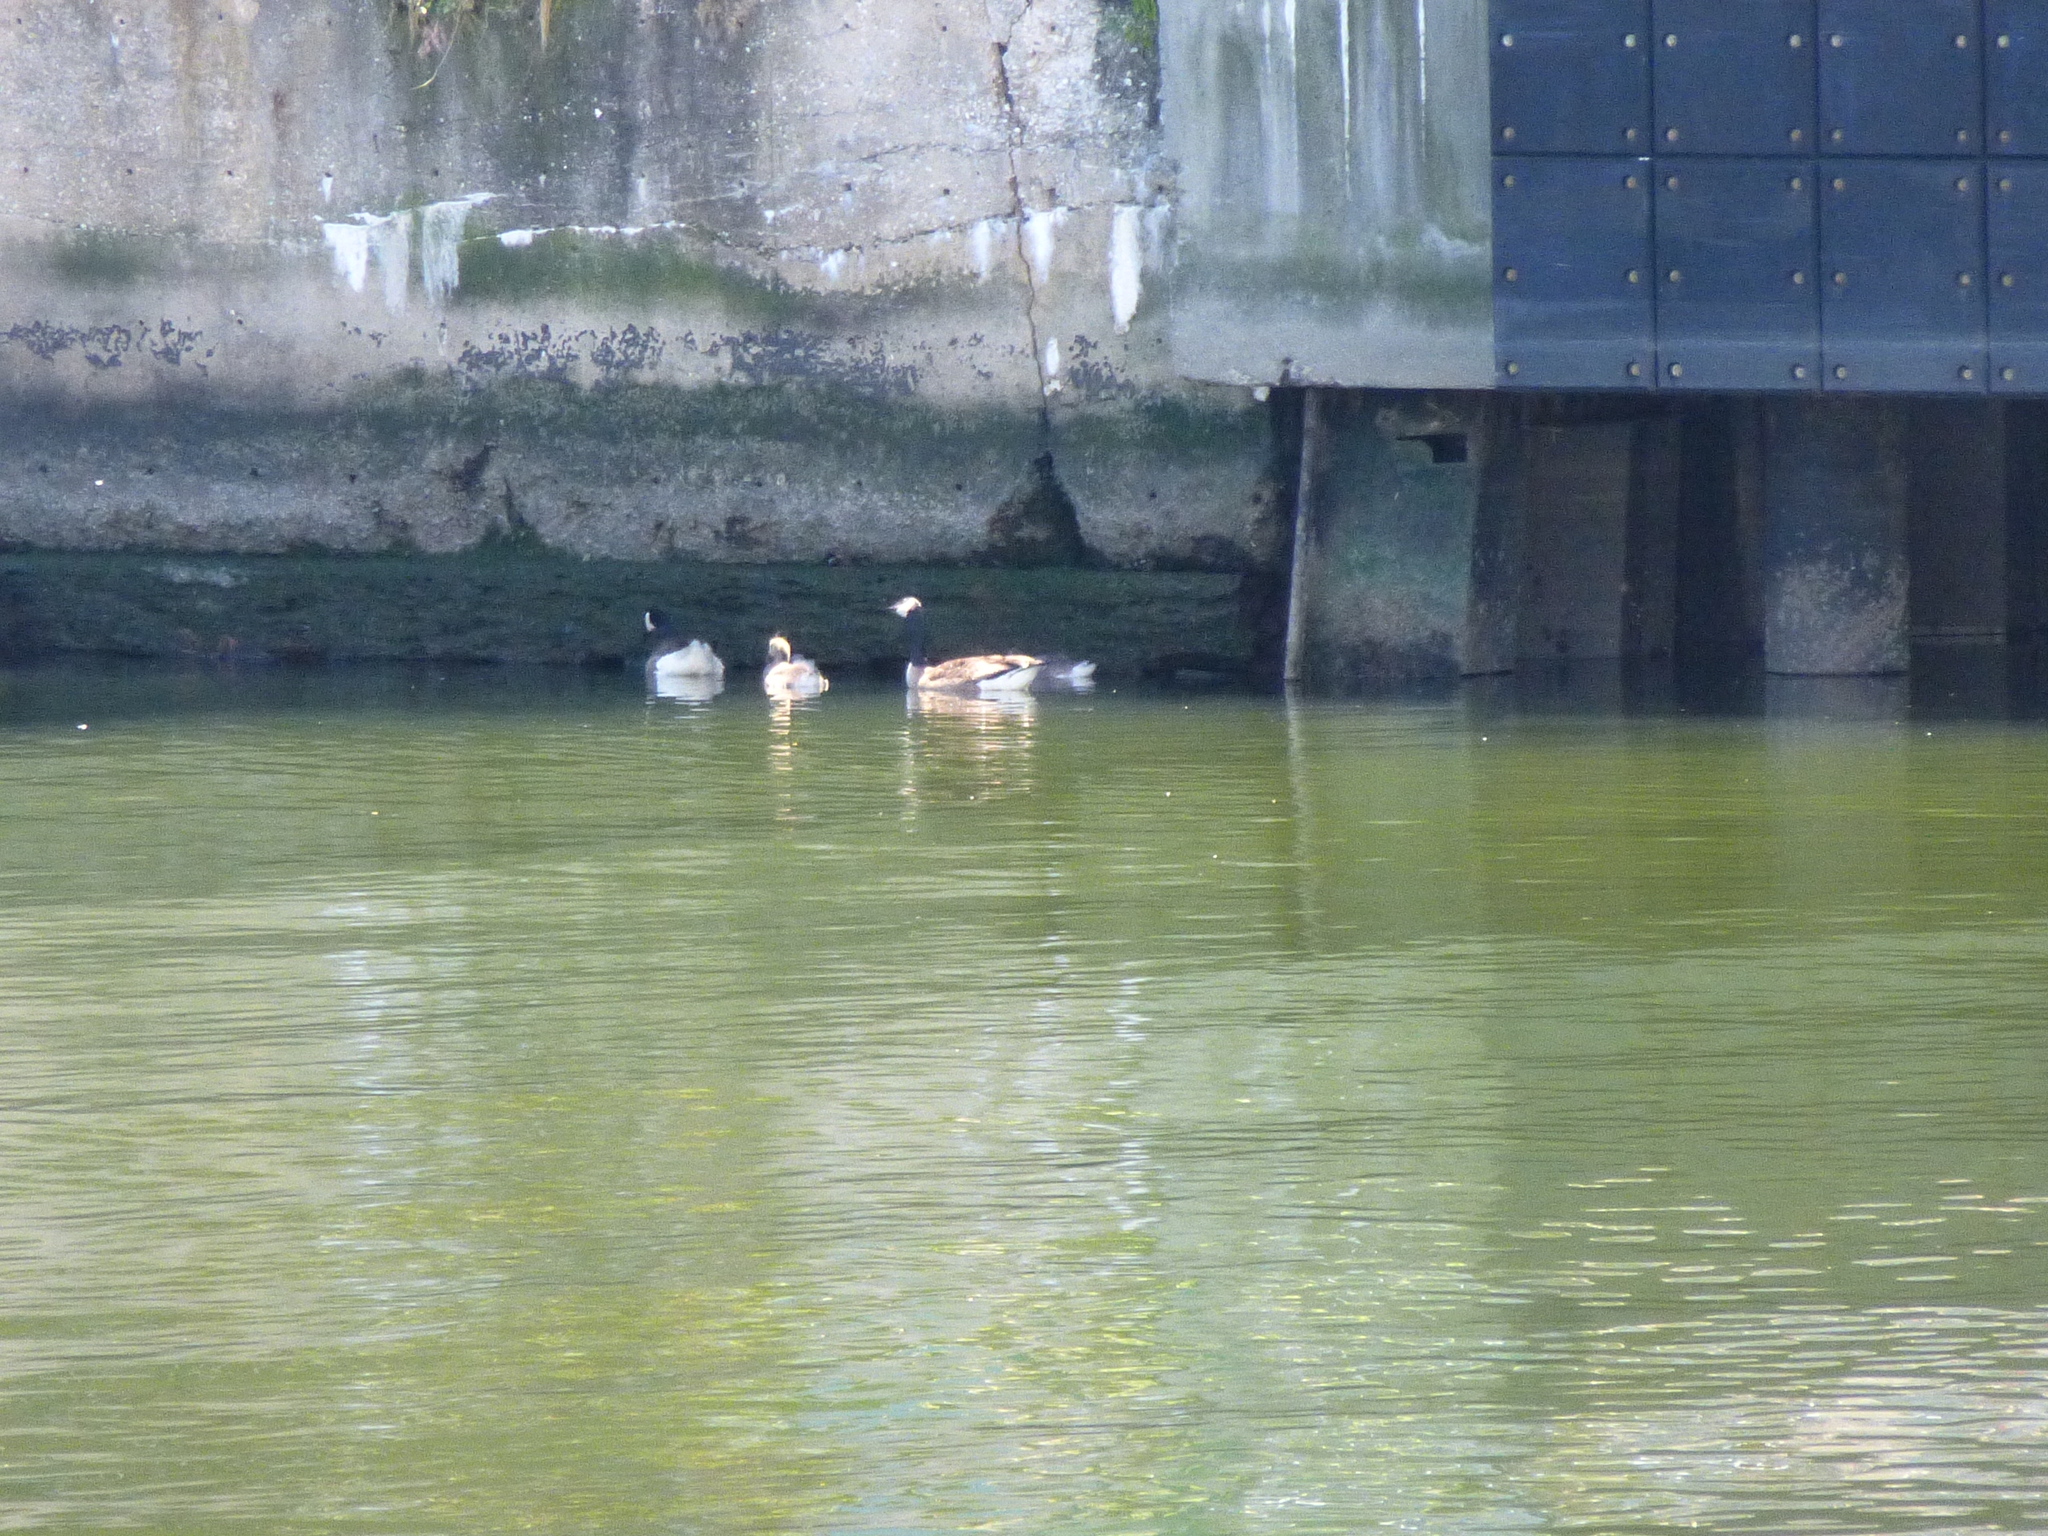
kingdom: Animalia
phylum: Chordata
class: Aves
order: Anseriformes
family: Anatidae
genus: Branta
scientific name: Branta canadensis
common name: Canada goose
